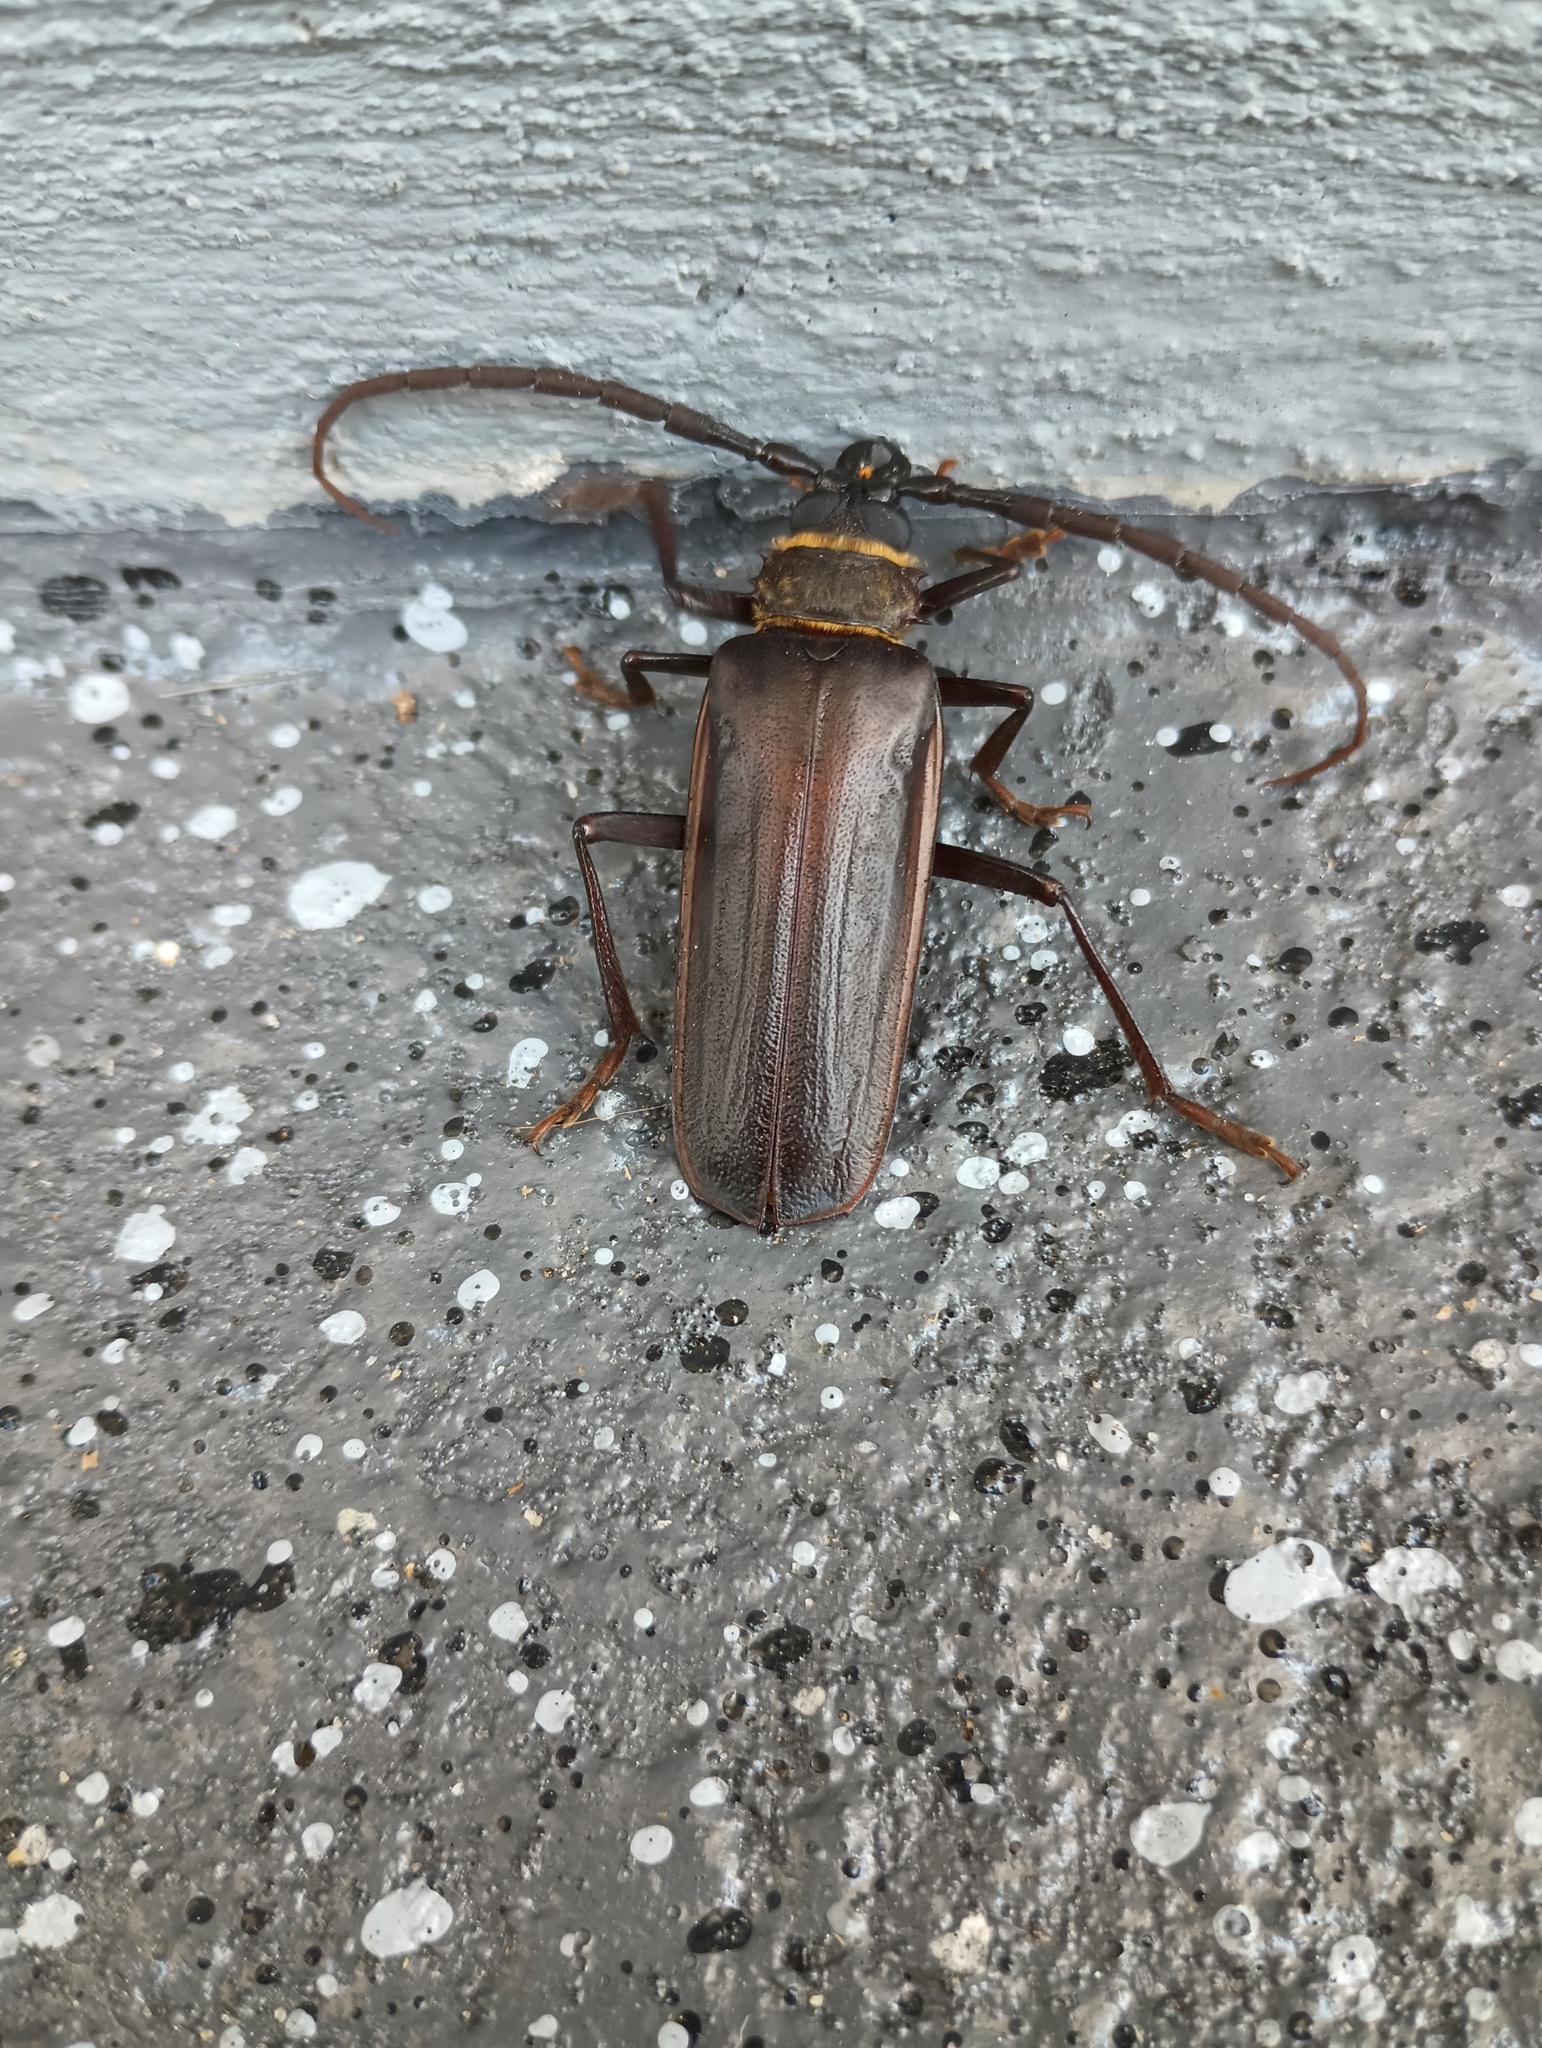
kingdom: Animalia
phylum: Arthropoda
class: Insecta
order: Coleoptera
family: Cerambycidae
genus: Prionus
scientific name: Prionus pocularis
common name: Tooth-necked longhorn beetle
